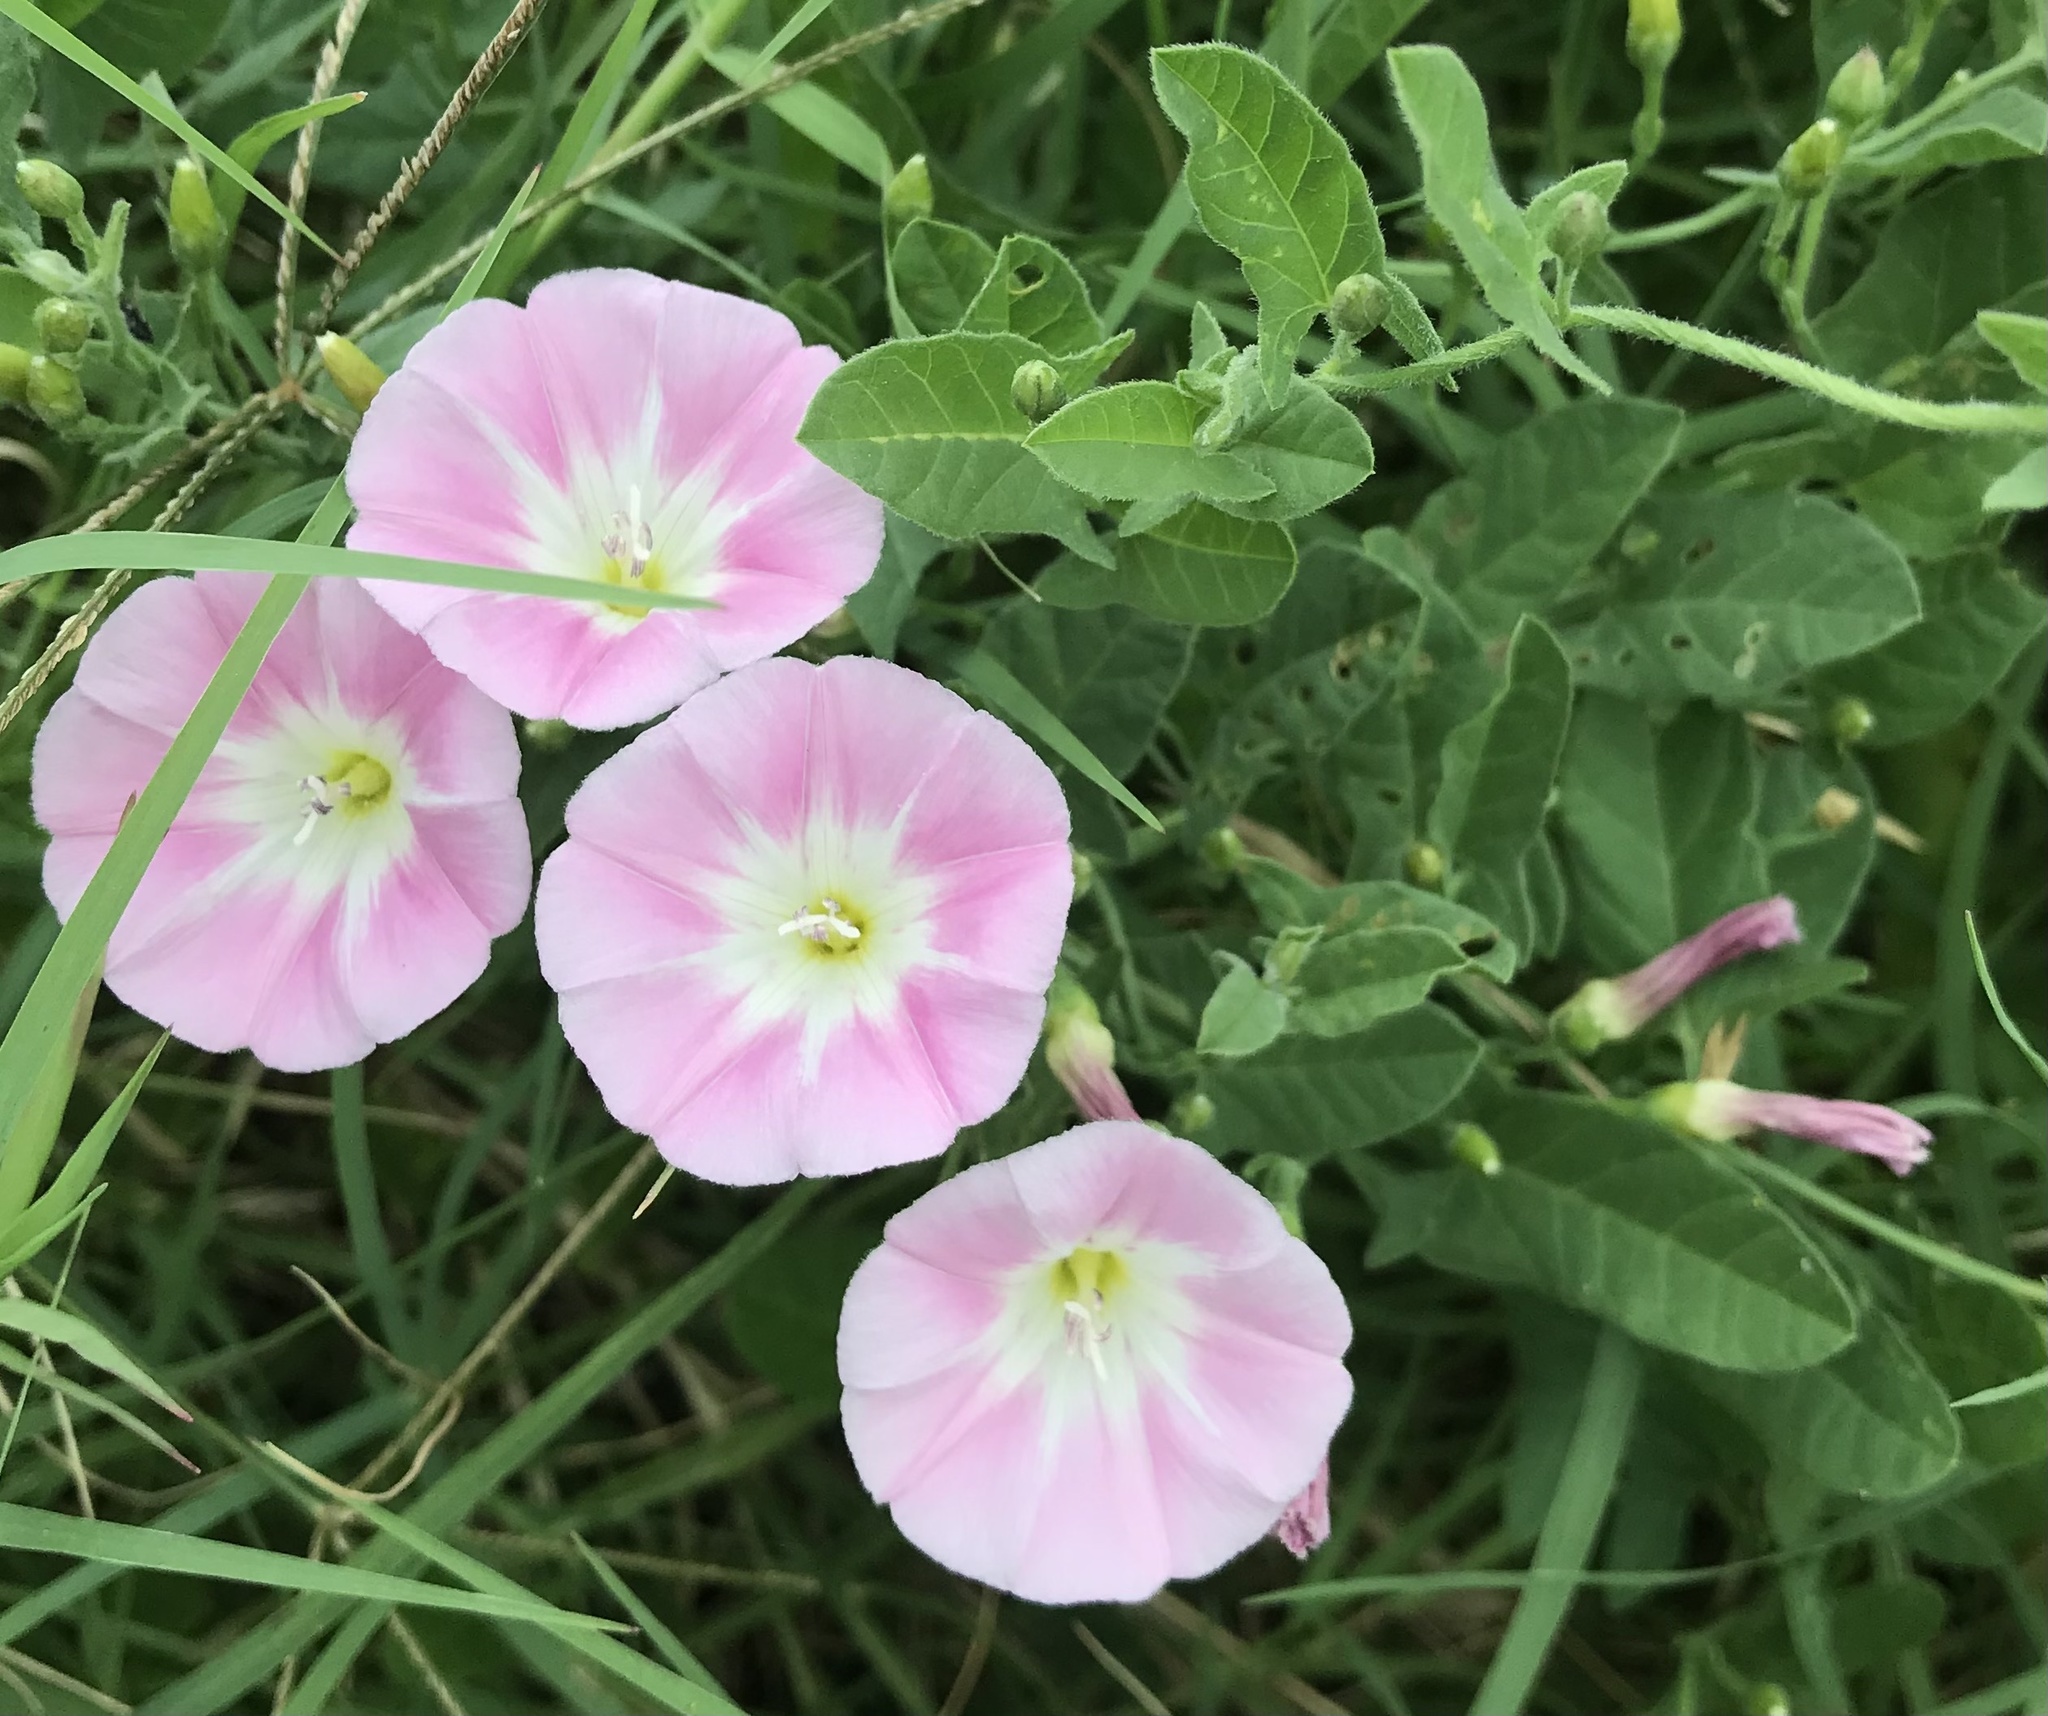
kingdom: Plantae
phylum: Tracheophyta
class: Magnoliopsida
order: Solanales
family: Convolvulaceae
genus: Convolvulus
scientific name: Convolvulus arvensis
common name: Field bindweed
